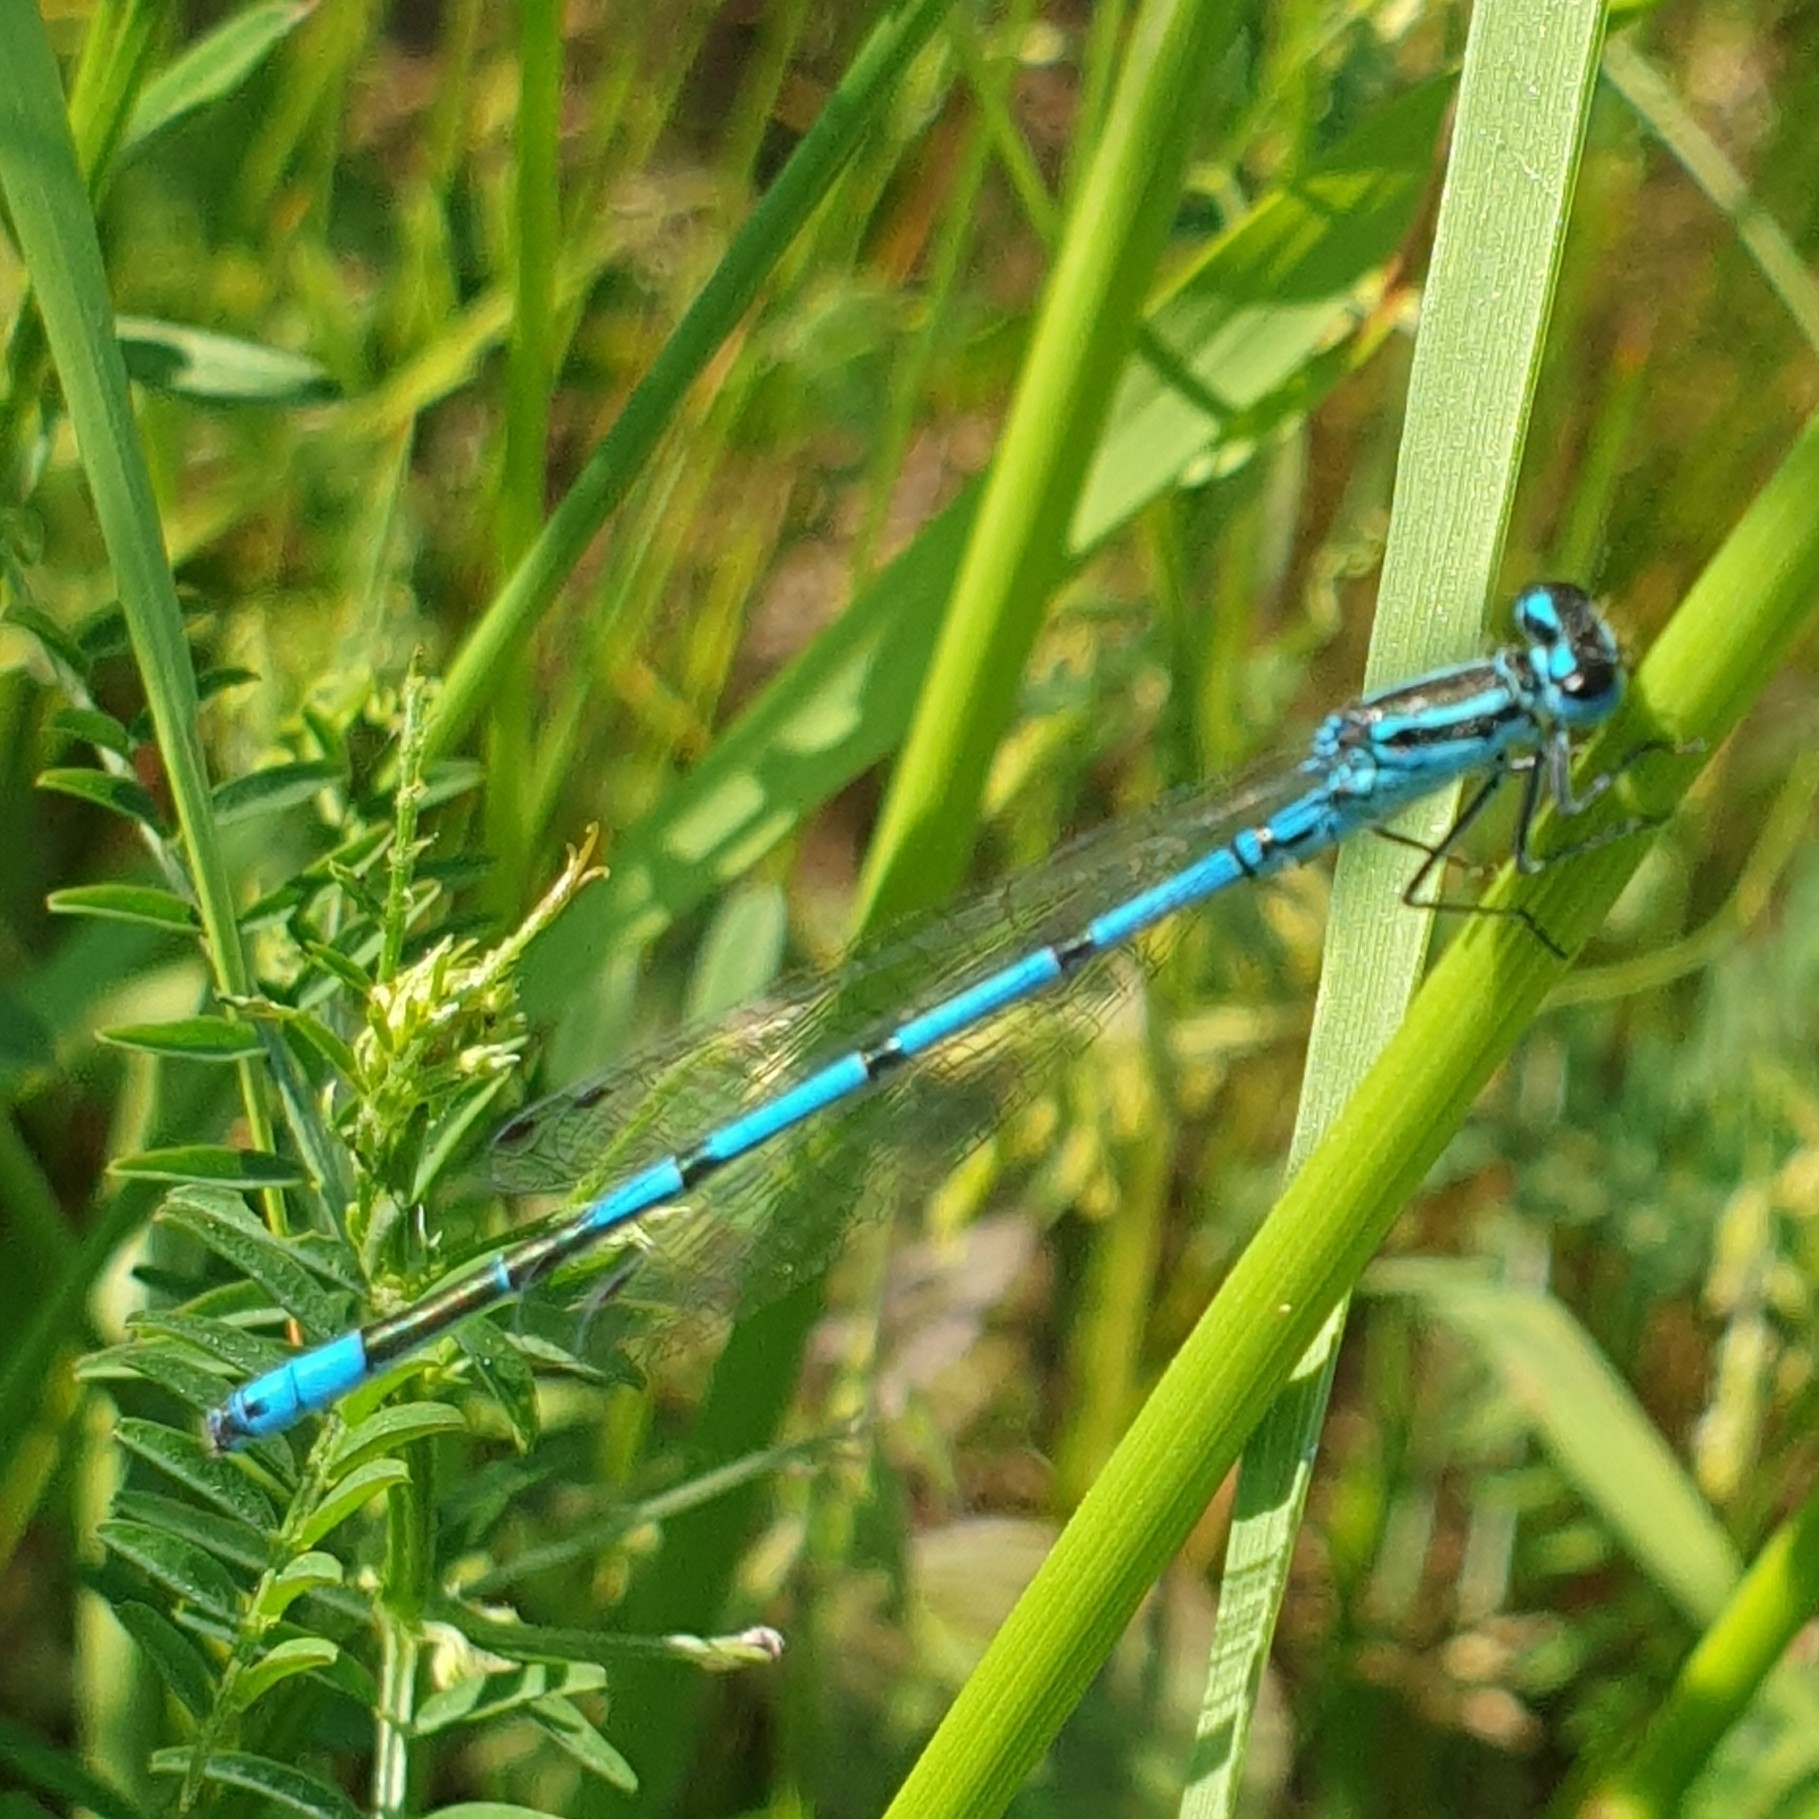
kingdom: Animalia
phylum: Arthropoda
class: Insecta
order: Odonata
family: Coenagrionidae
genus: Coenagrion
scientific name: Coenagrion puella
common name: Azure damselfly
